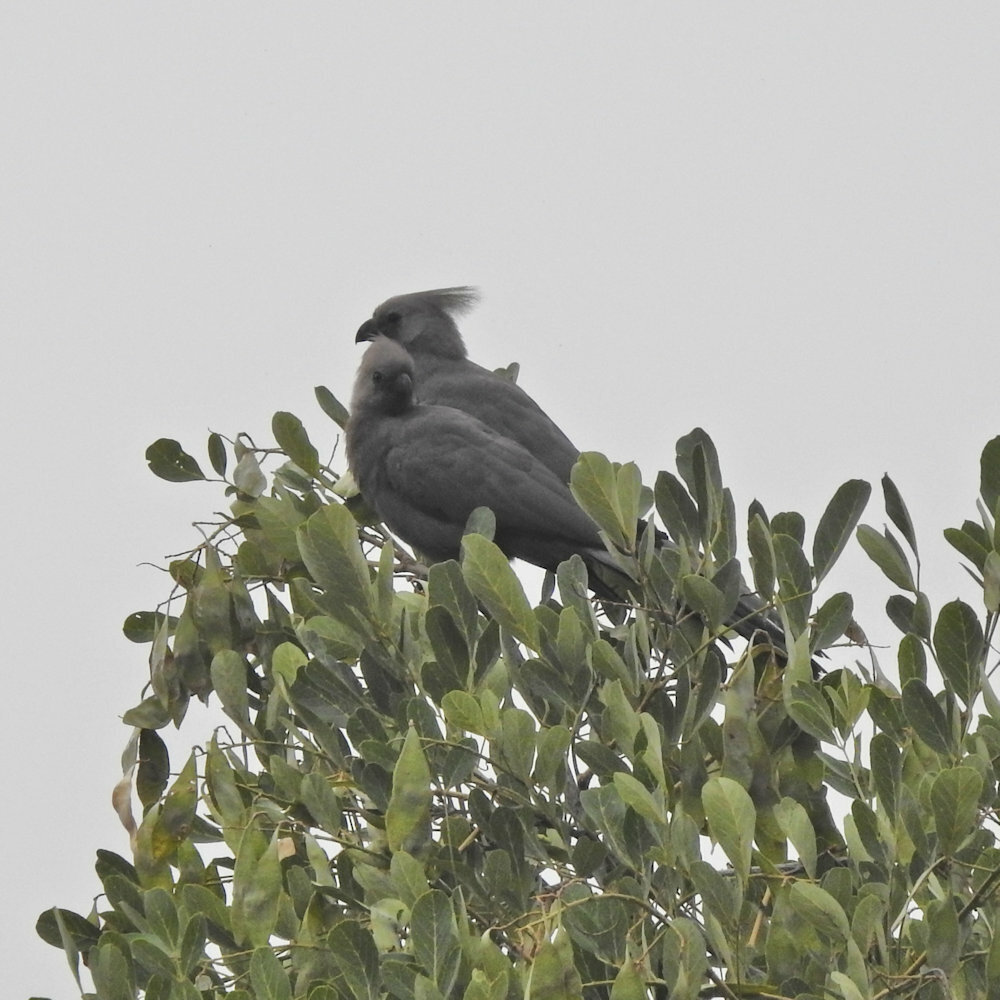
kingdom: Animalia
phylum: Chordata
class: Aves
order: Musophagiformes
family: Musophagidae
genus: Corythaixoides
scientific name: Corythaixoides concolor
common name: Grey go-away-bird
